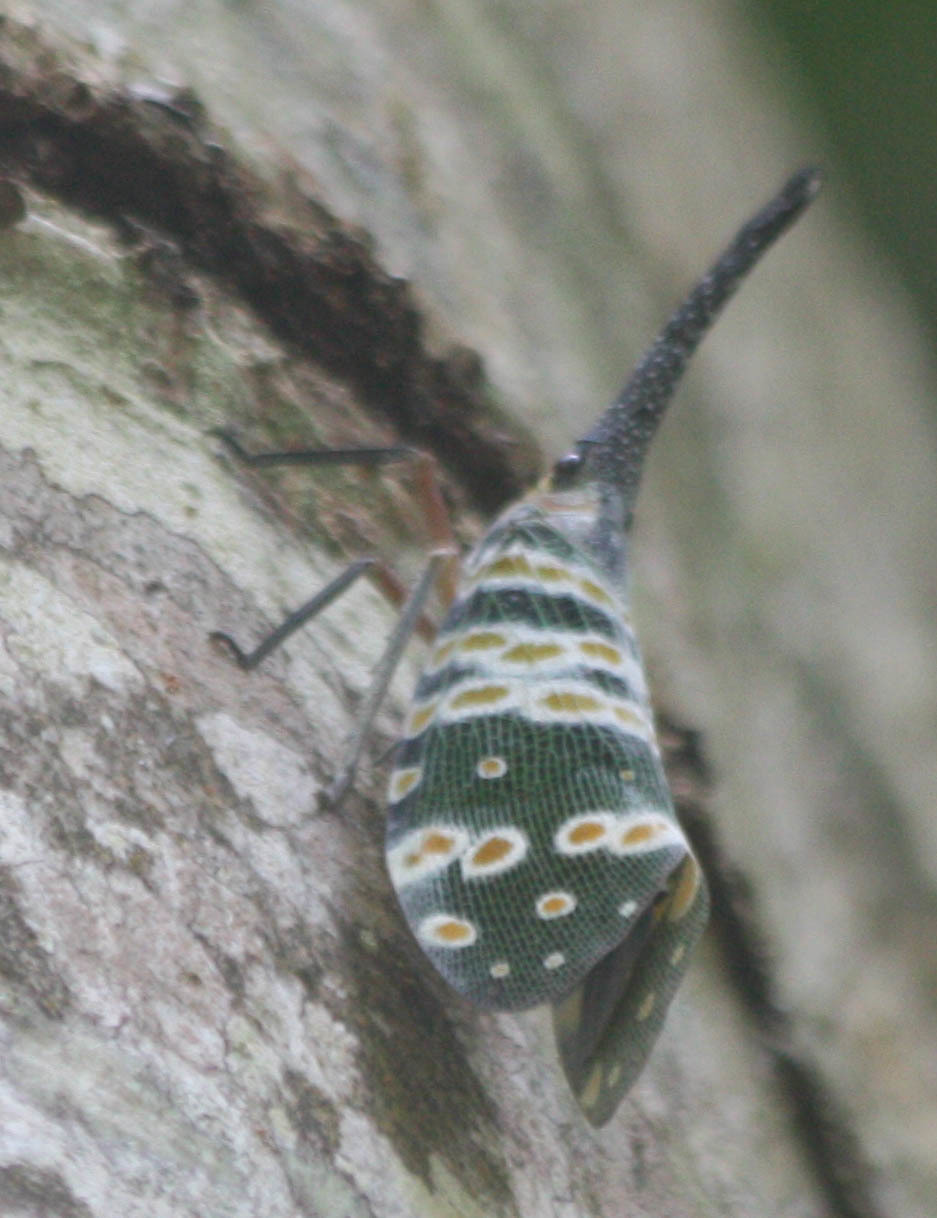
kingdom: Animalia
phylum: Arthropoda
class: Insecta
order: Hemiptera
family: Fulgoridae
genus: Pyrops
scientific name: Pyrops spinolae
